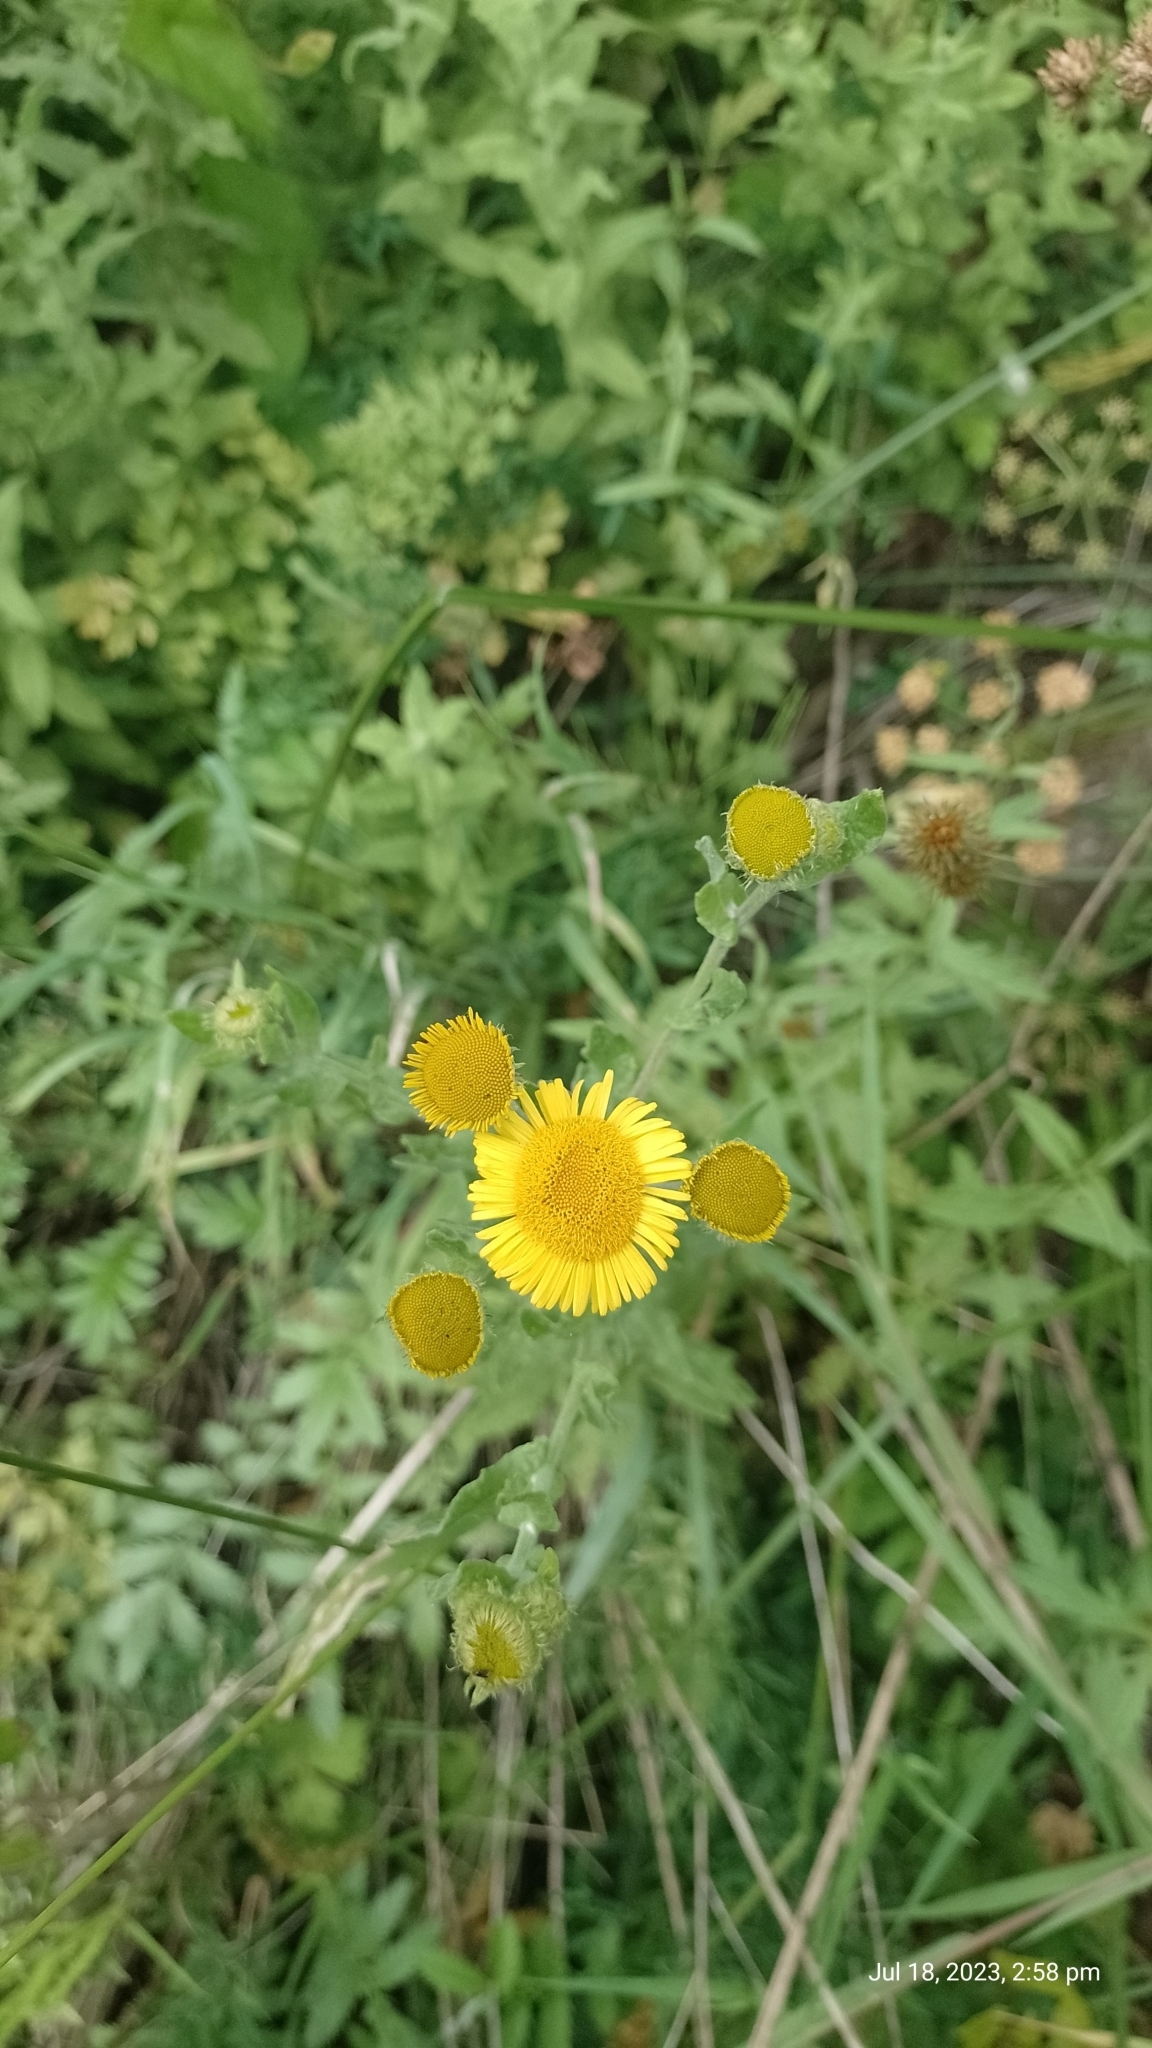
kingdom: Plantae
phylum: Tracheophyta
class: Magnoliopsida
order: Asterales
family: Asteraceae
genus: Pulicaria
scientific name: Pulicaria dysenterica
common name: Common fleabane
